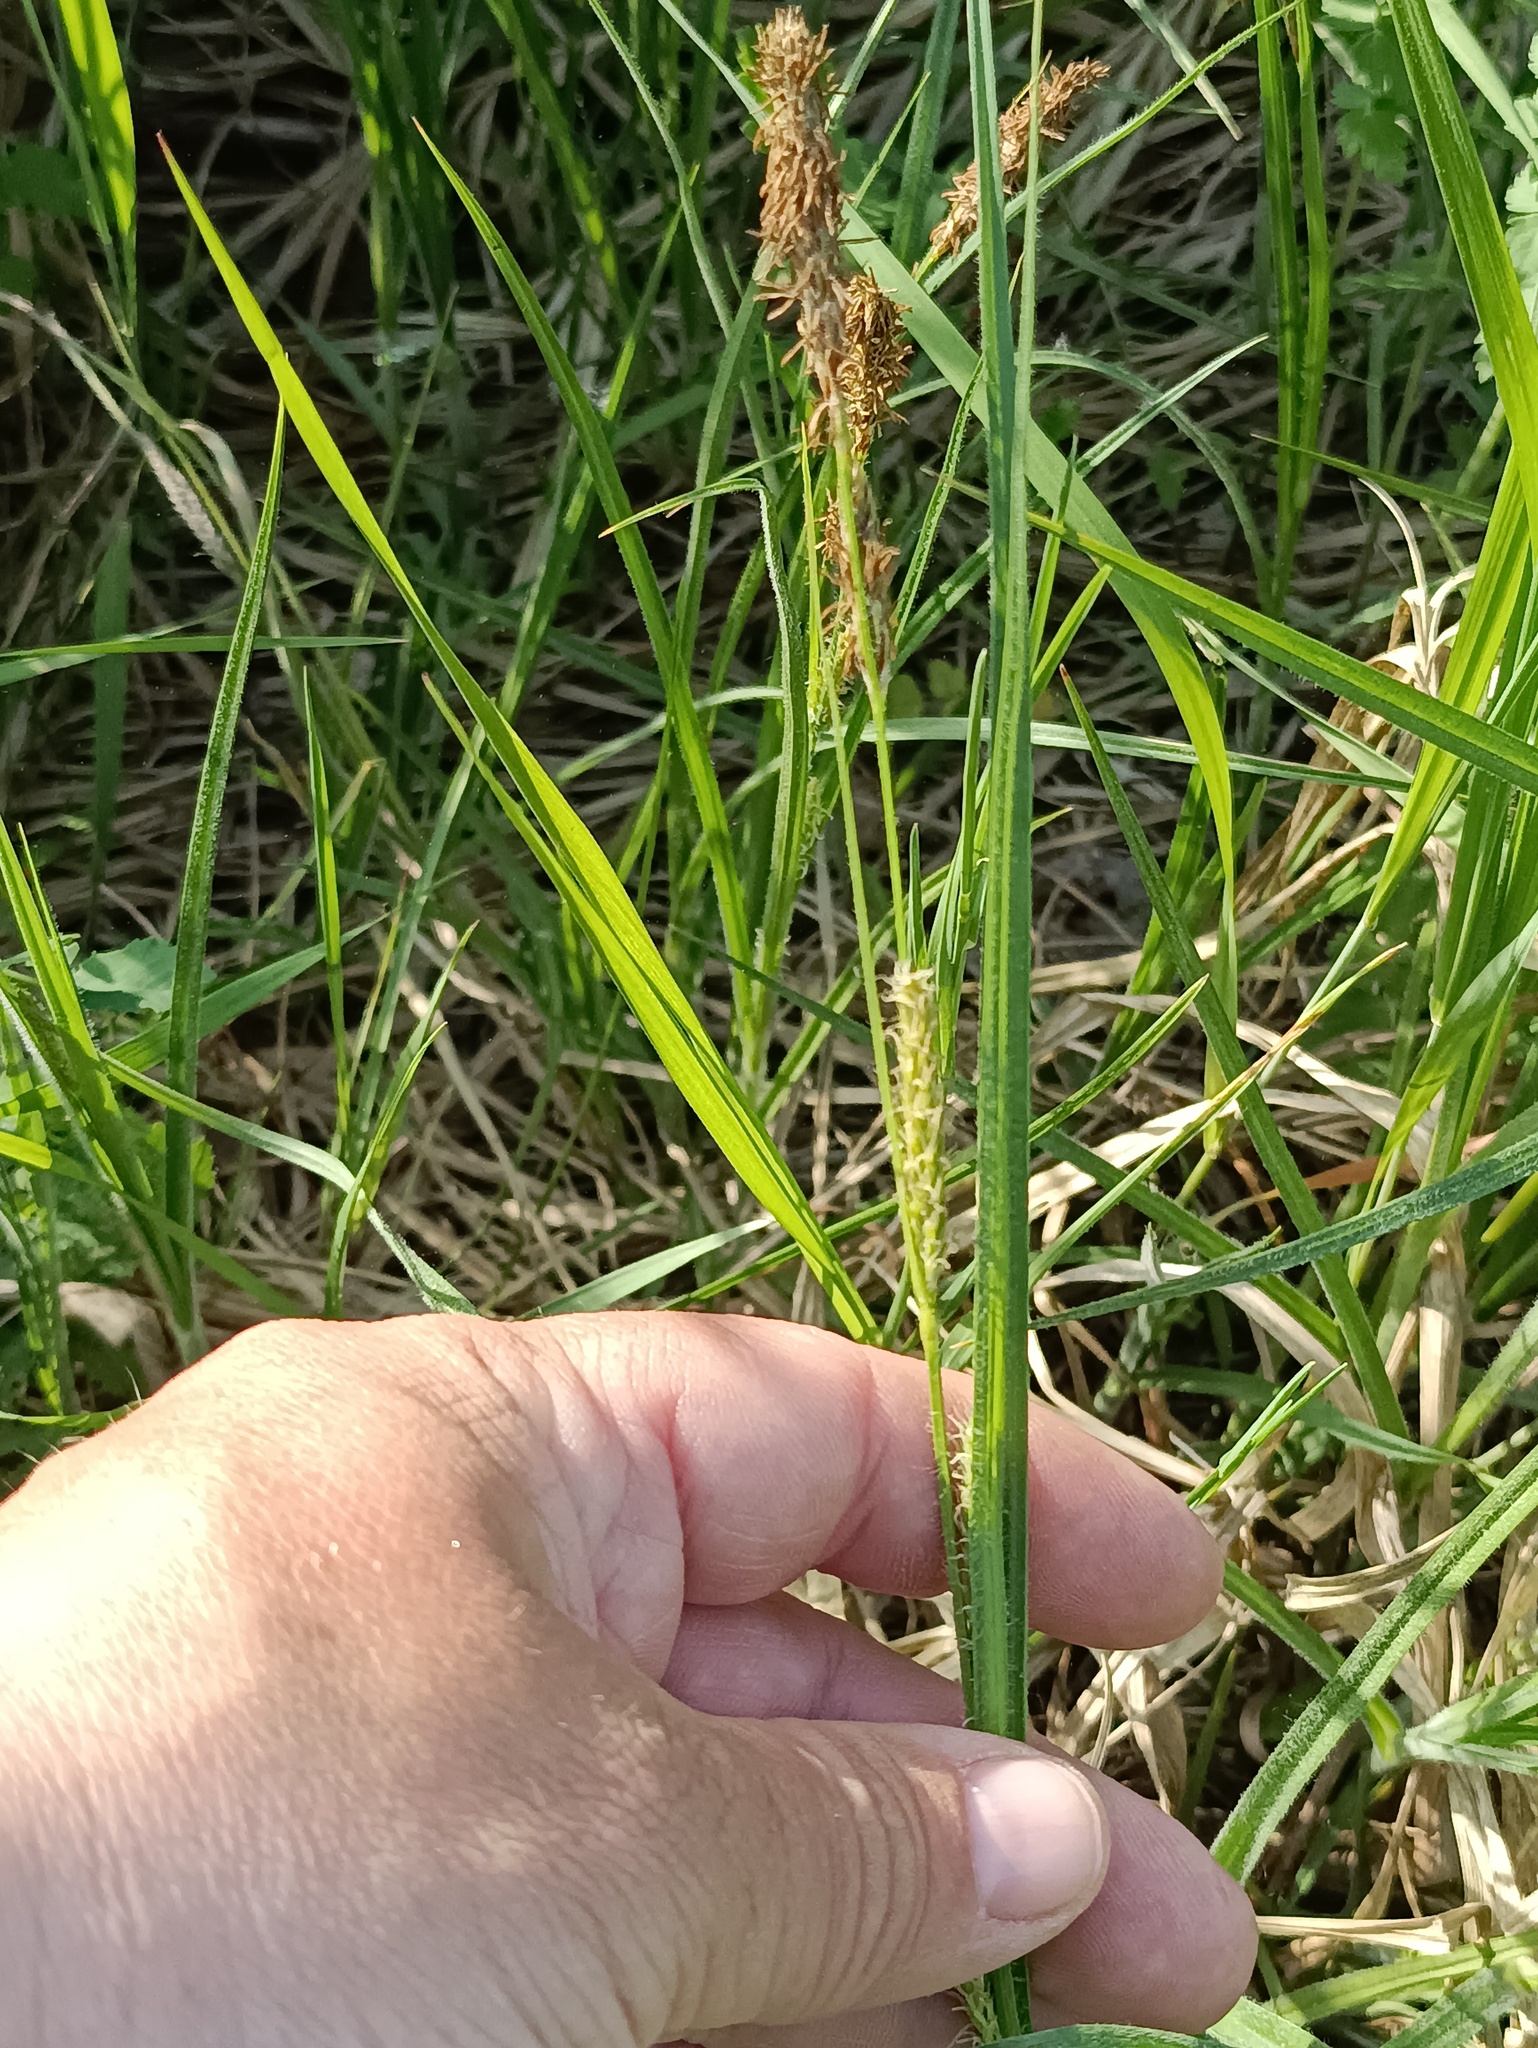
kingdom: Plantae
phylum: Tracheophyta
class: Liliopsida
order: Poales
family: Cyperaceae
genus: Carex
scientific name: Carex hirta
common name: Hairy sedge
